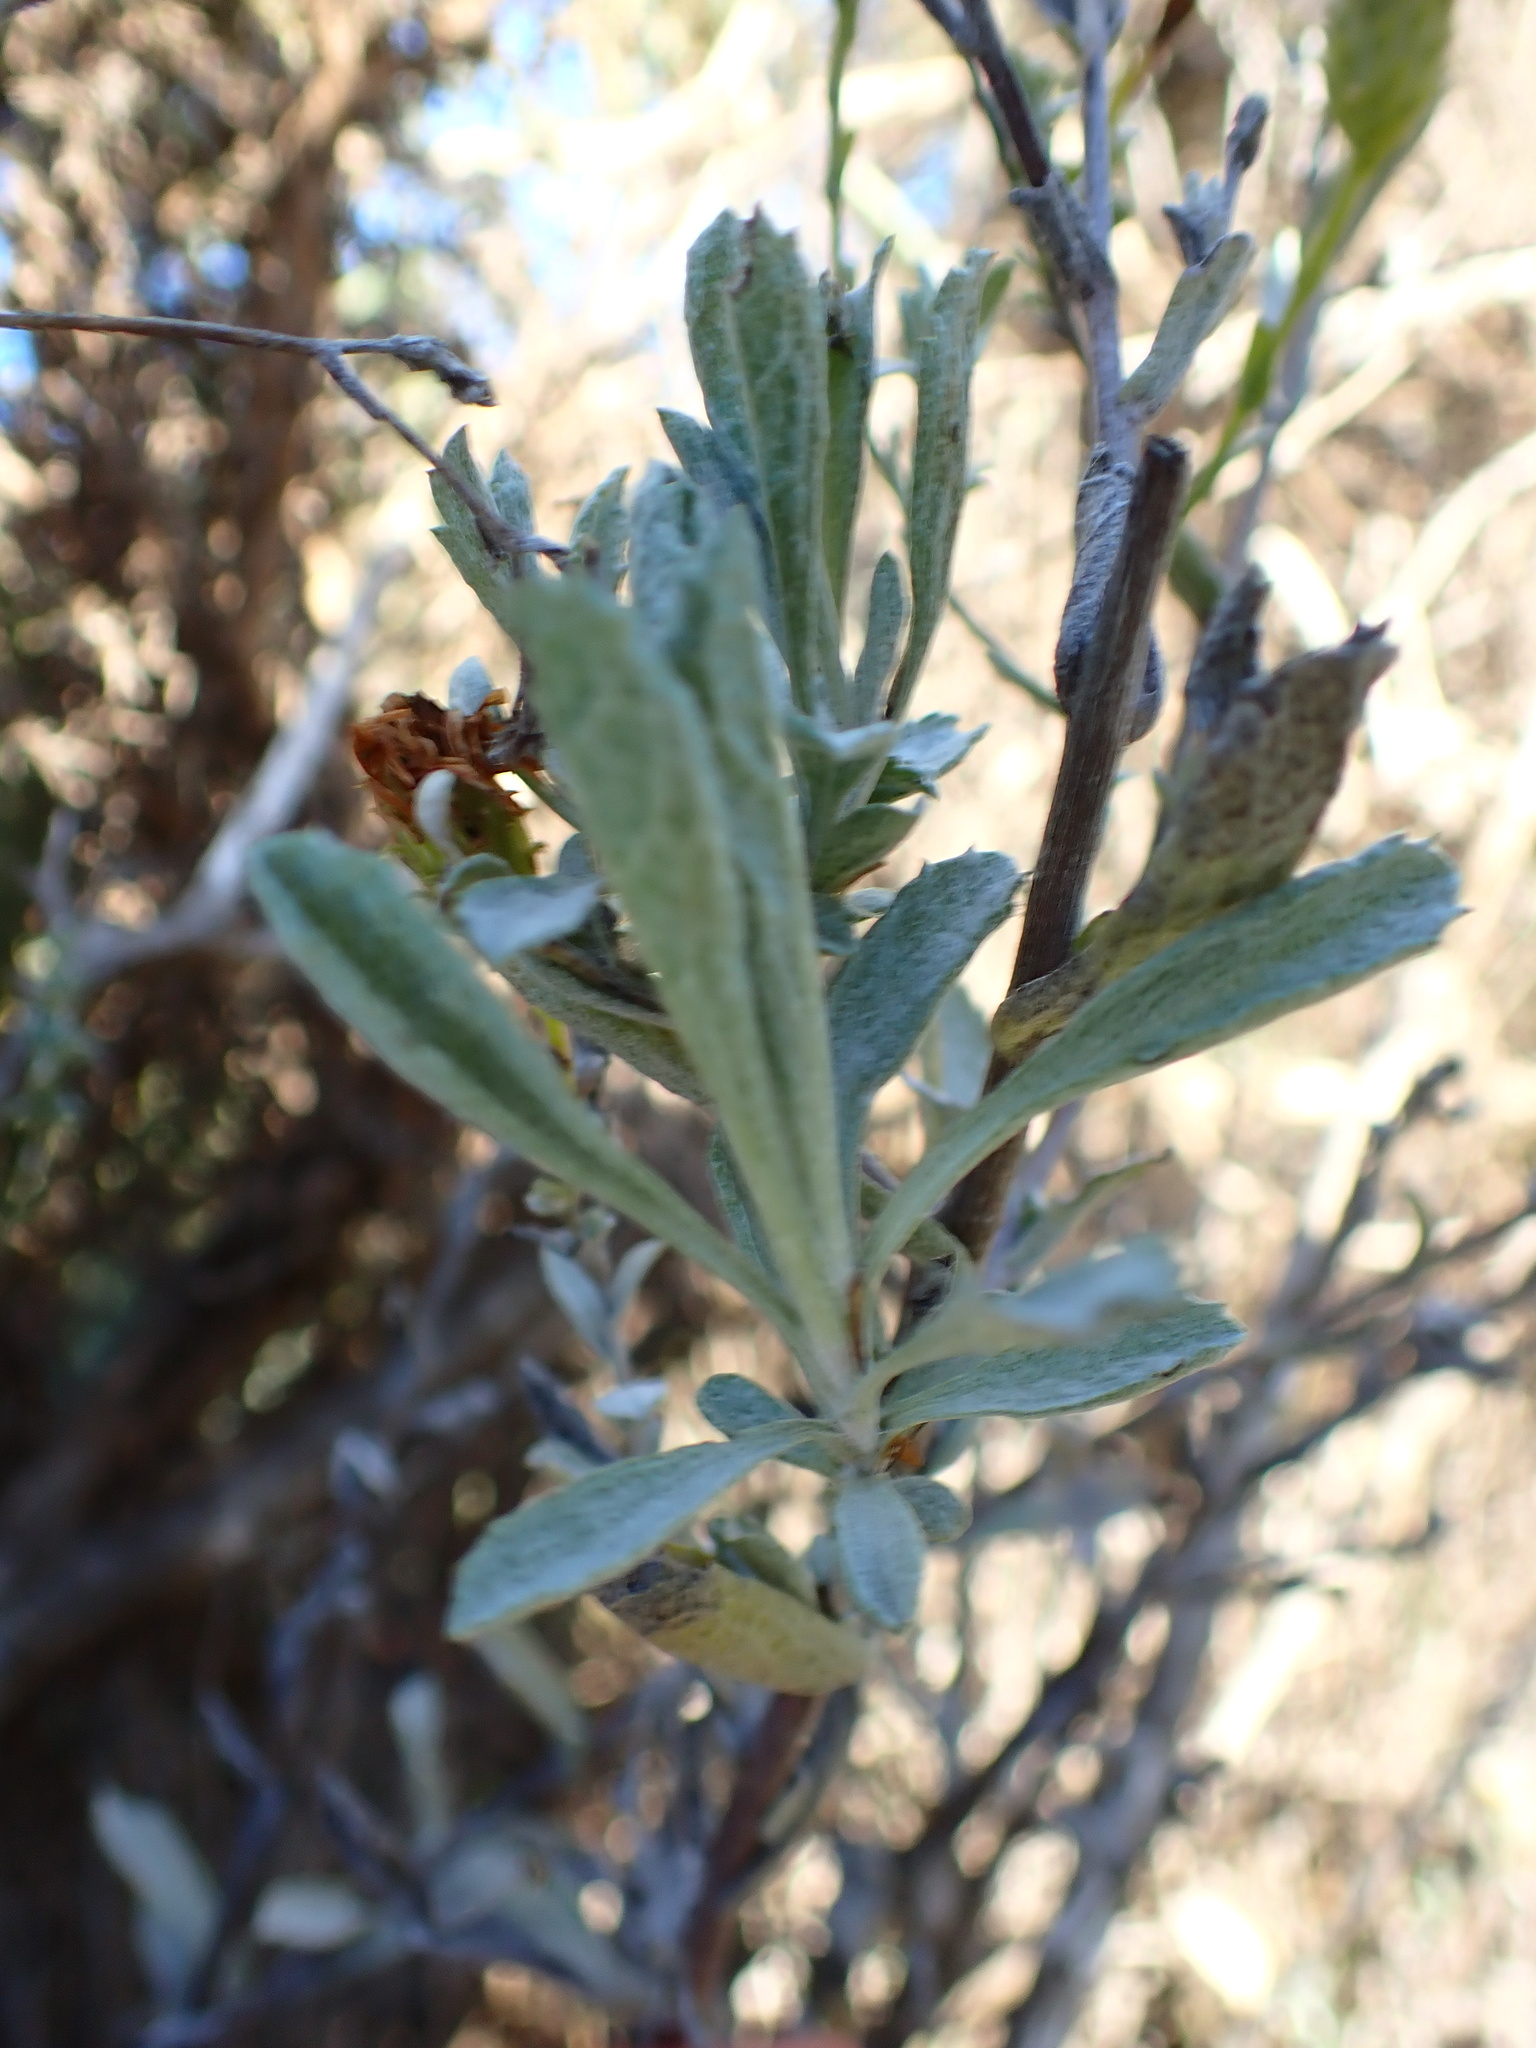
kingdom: Plantae
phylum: Tracheophyta
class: Magnoliopsida
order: Asterales
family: Asteraceae
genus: Corethrogyne
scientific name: Corethrogyne filaginifolia
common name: Sand-aster
